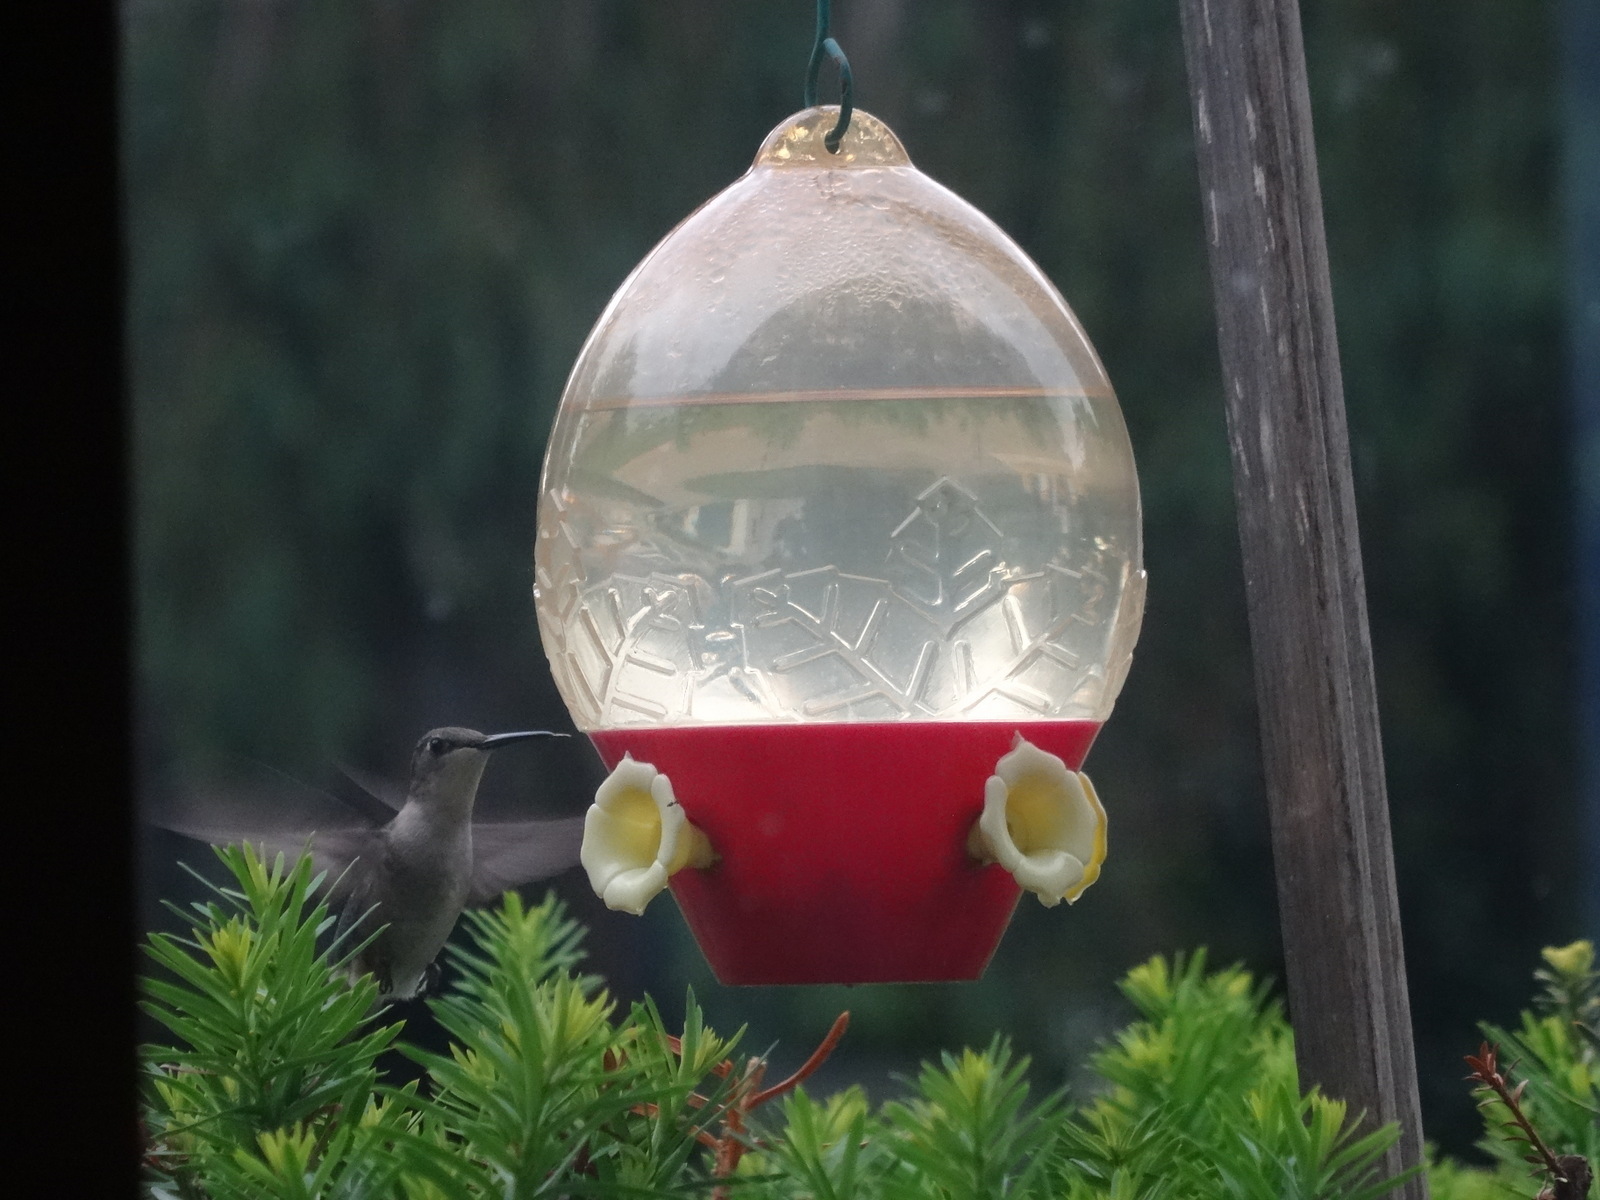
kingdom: Animalia
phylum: Chordata
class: Aves
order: Apodiformes
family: Trochilidae
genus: Archilochus
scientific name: Archilochus colubris
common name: Ruby-throated hummingbird
